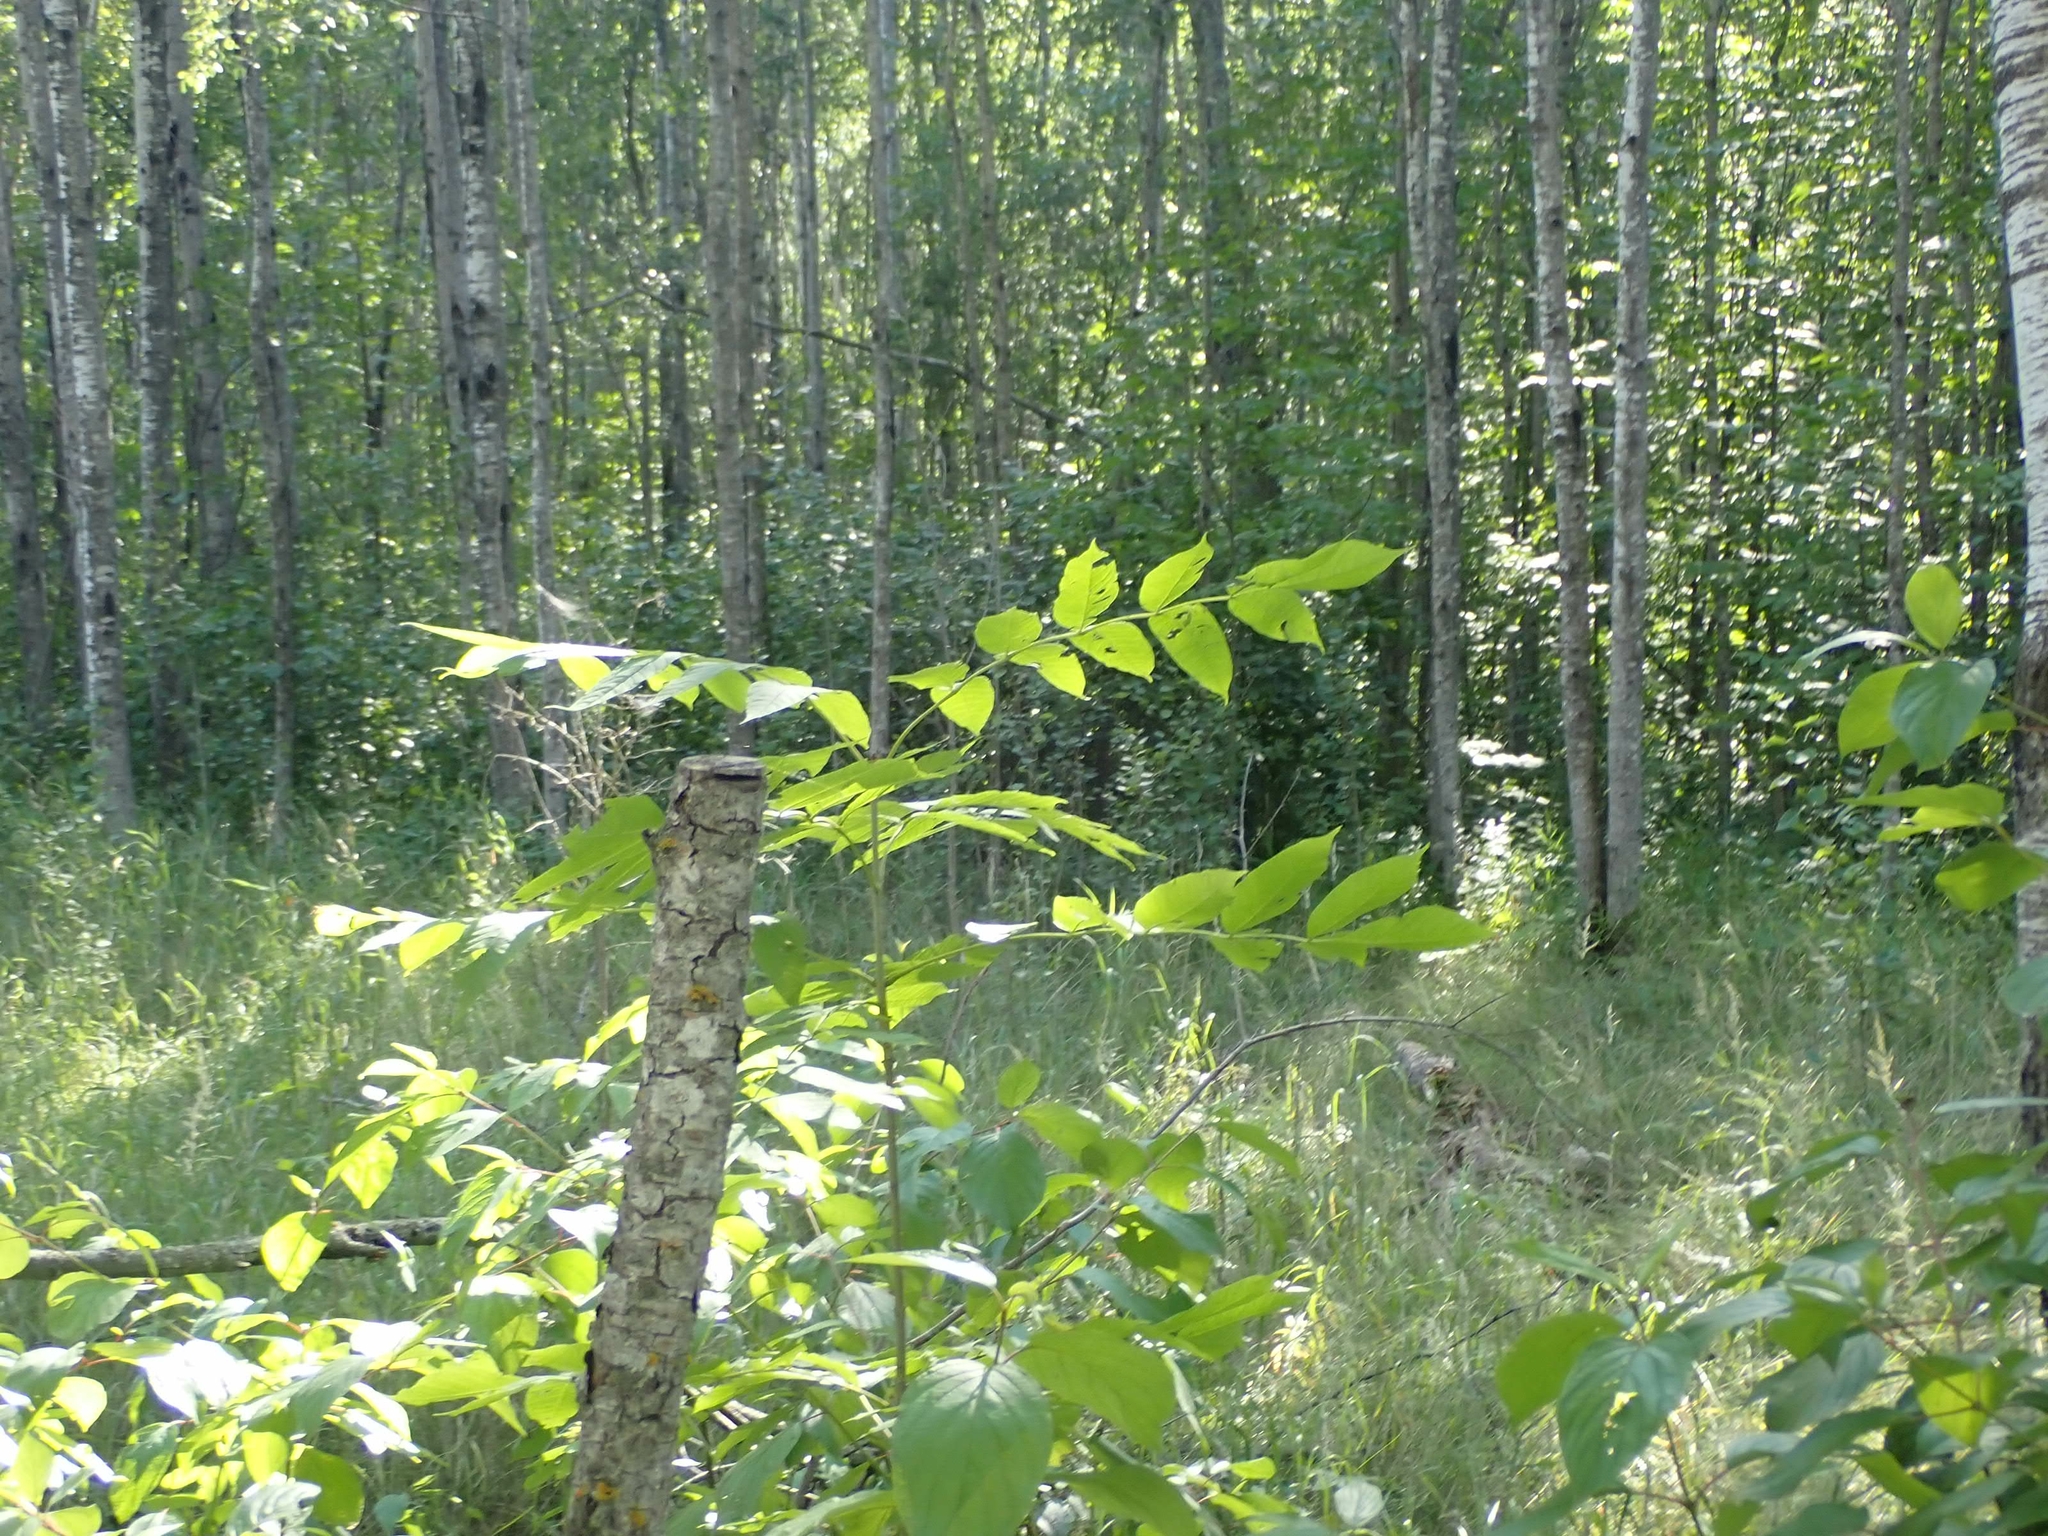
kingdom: Plantae
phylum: Tracheophyta
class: Magnoliopsida
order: Lamiales
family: Oleaceae
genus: Fraxinus
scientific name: Fraxinus nigra
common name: Black ash
